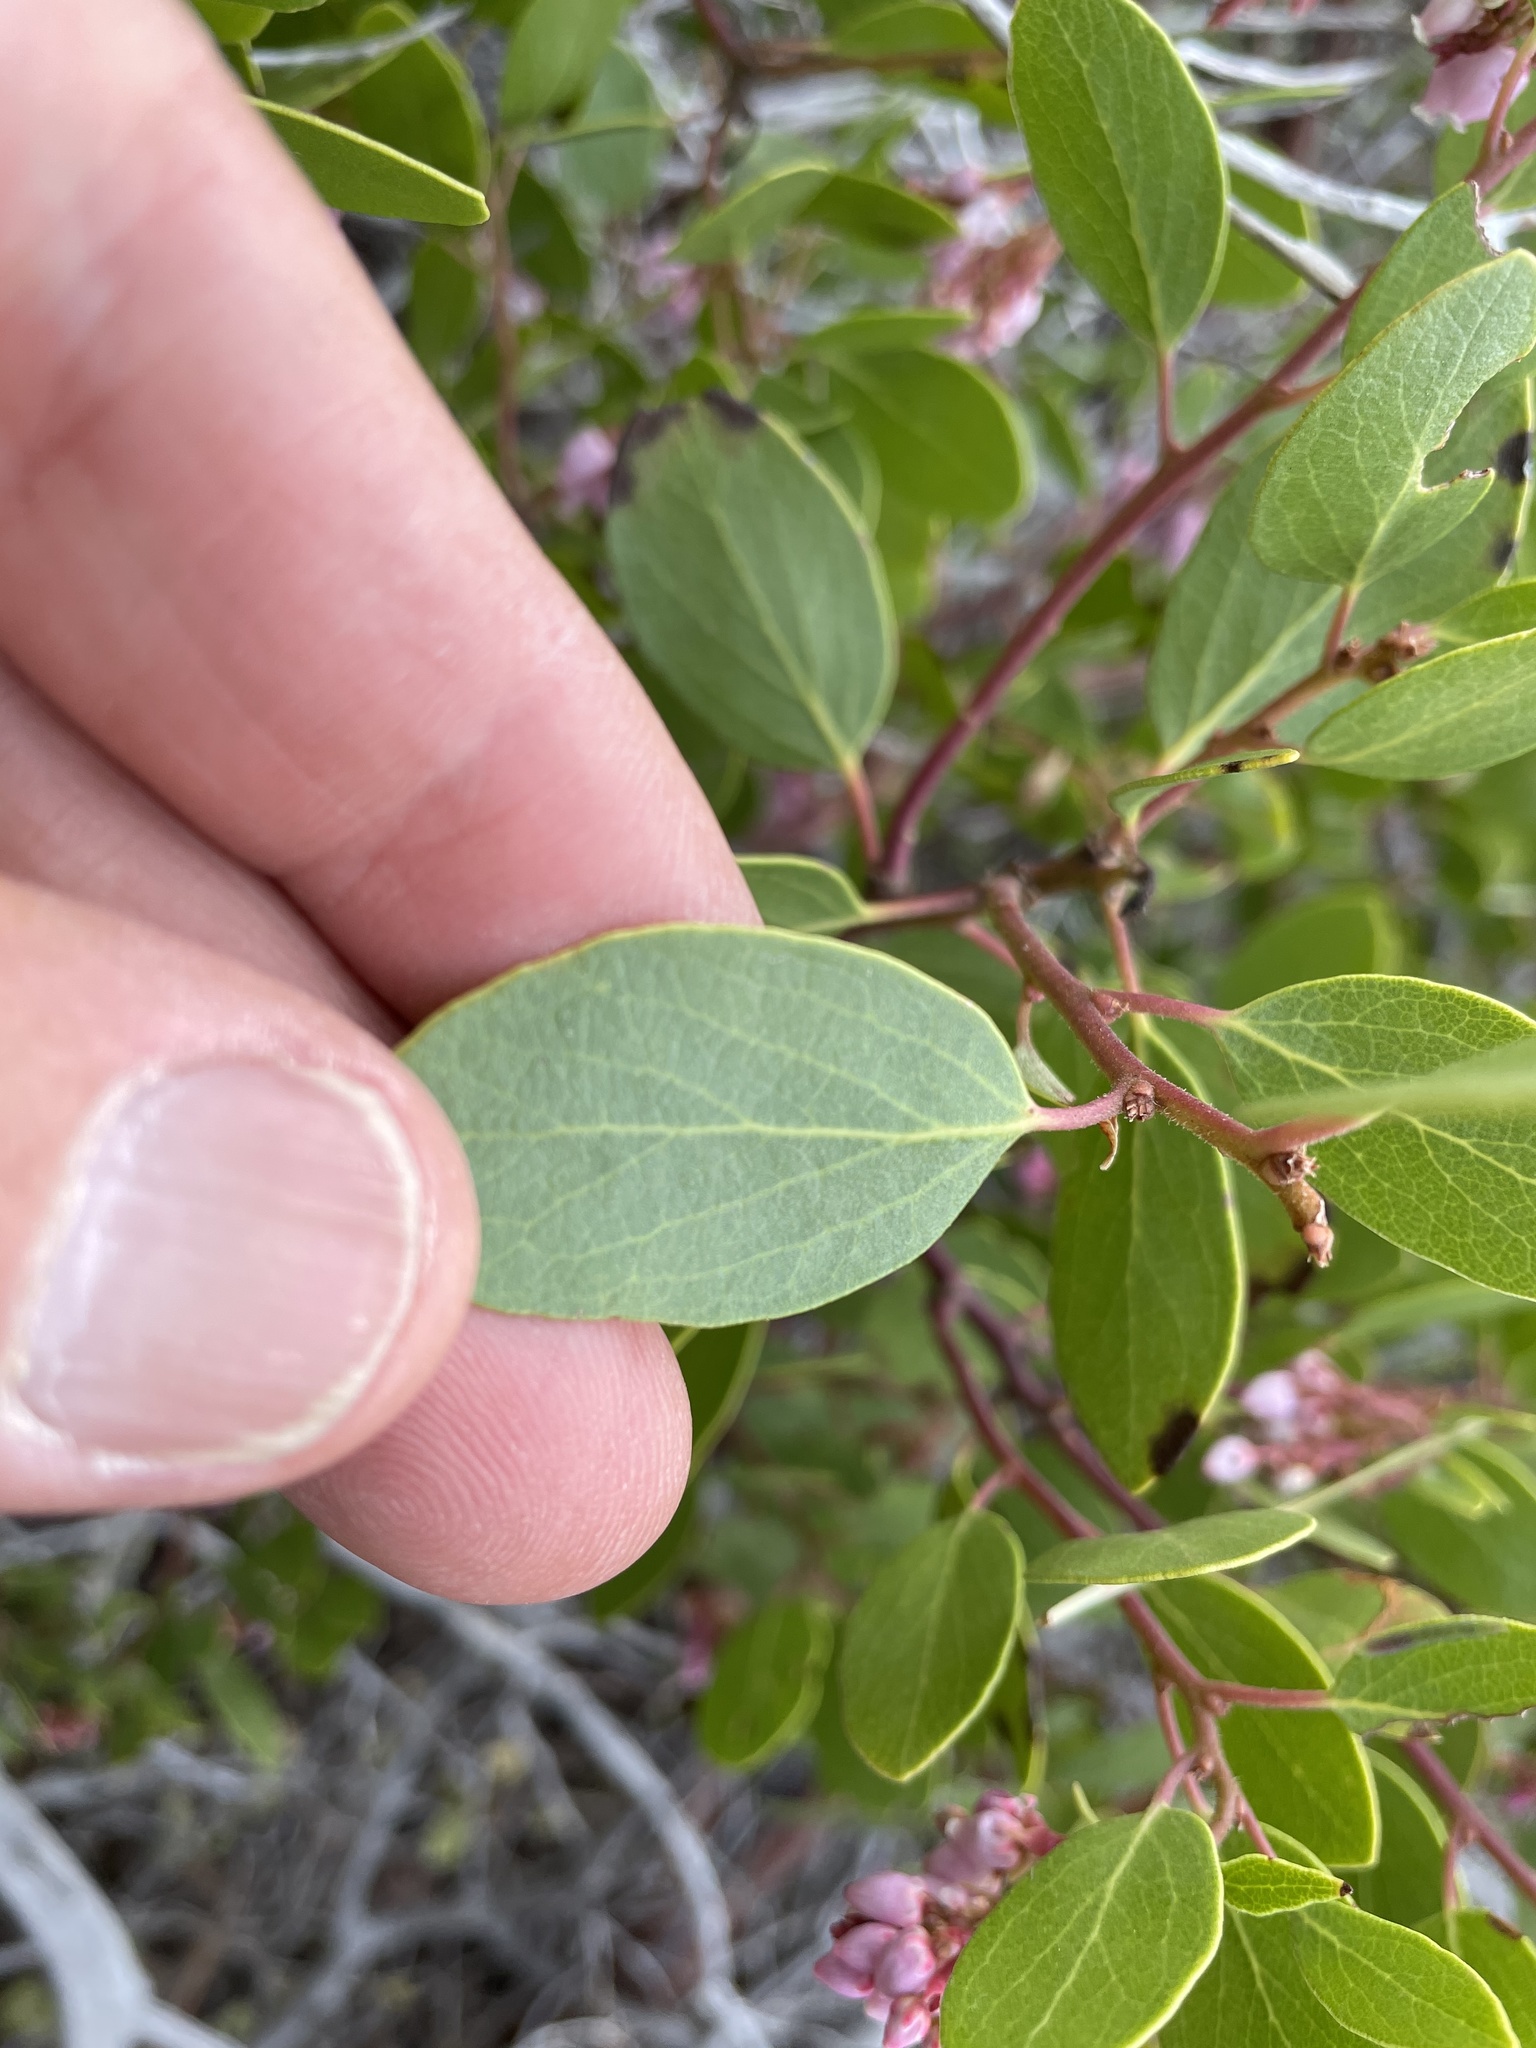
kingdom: Plantae
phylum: Tracheophyta
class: Magnoliopsida
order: Ericales
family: Ericaceae
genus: Arctostaphylos
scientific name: Arctostaphylos patula
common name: Green-leaf manzanita
